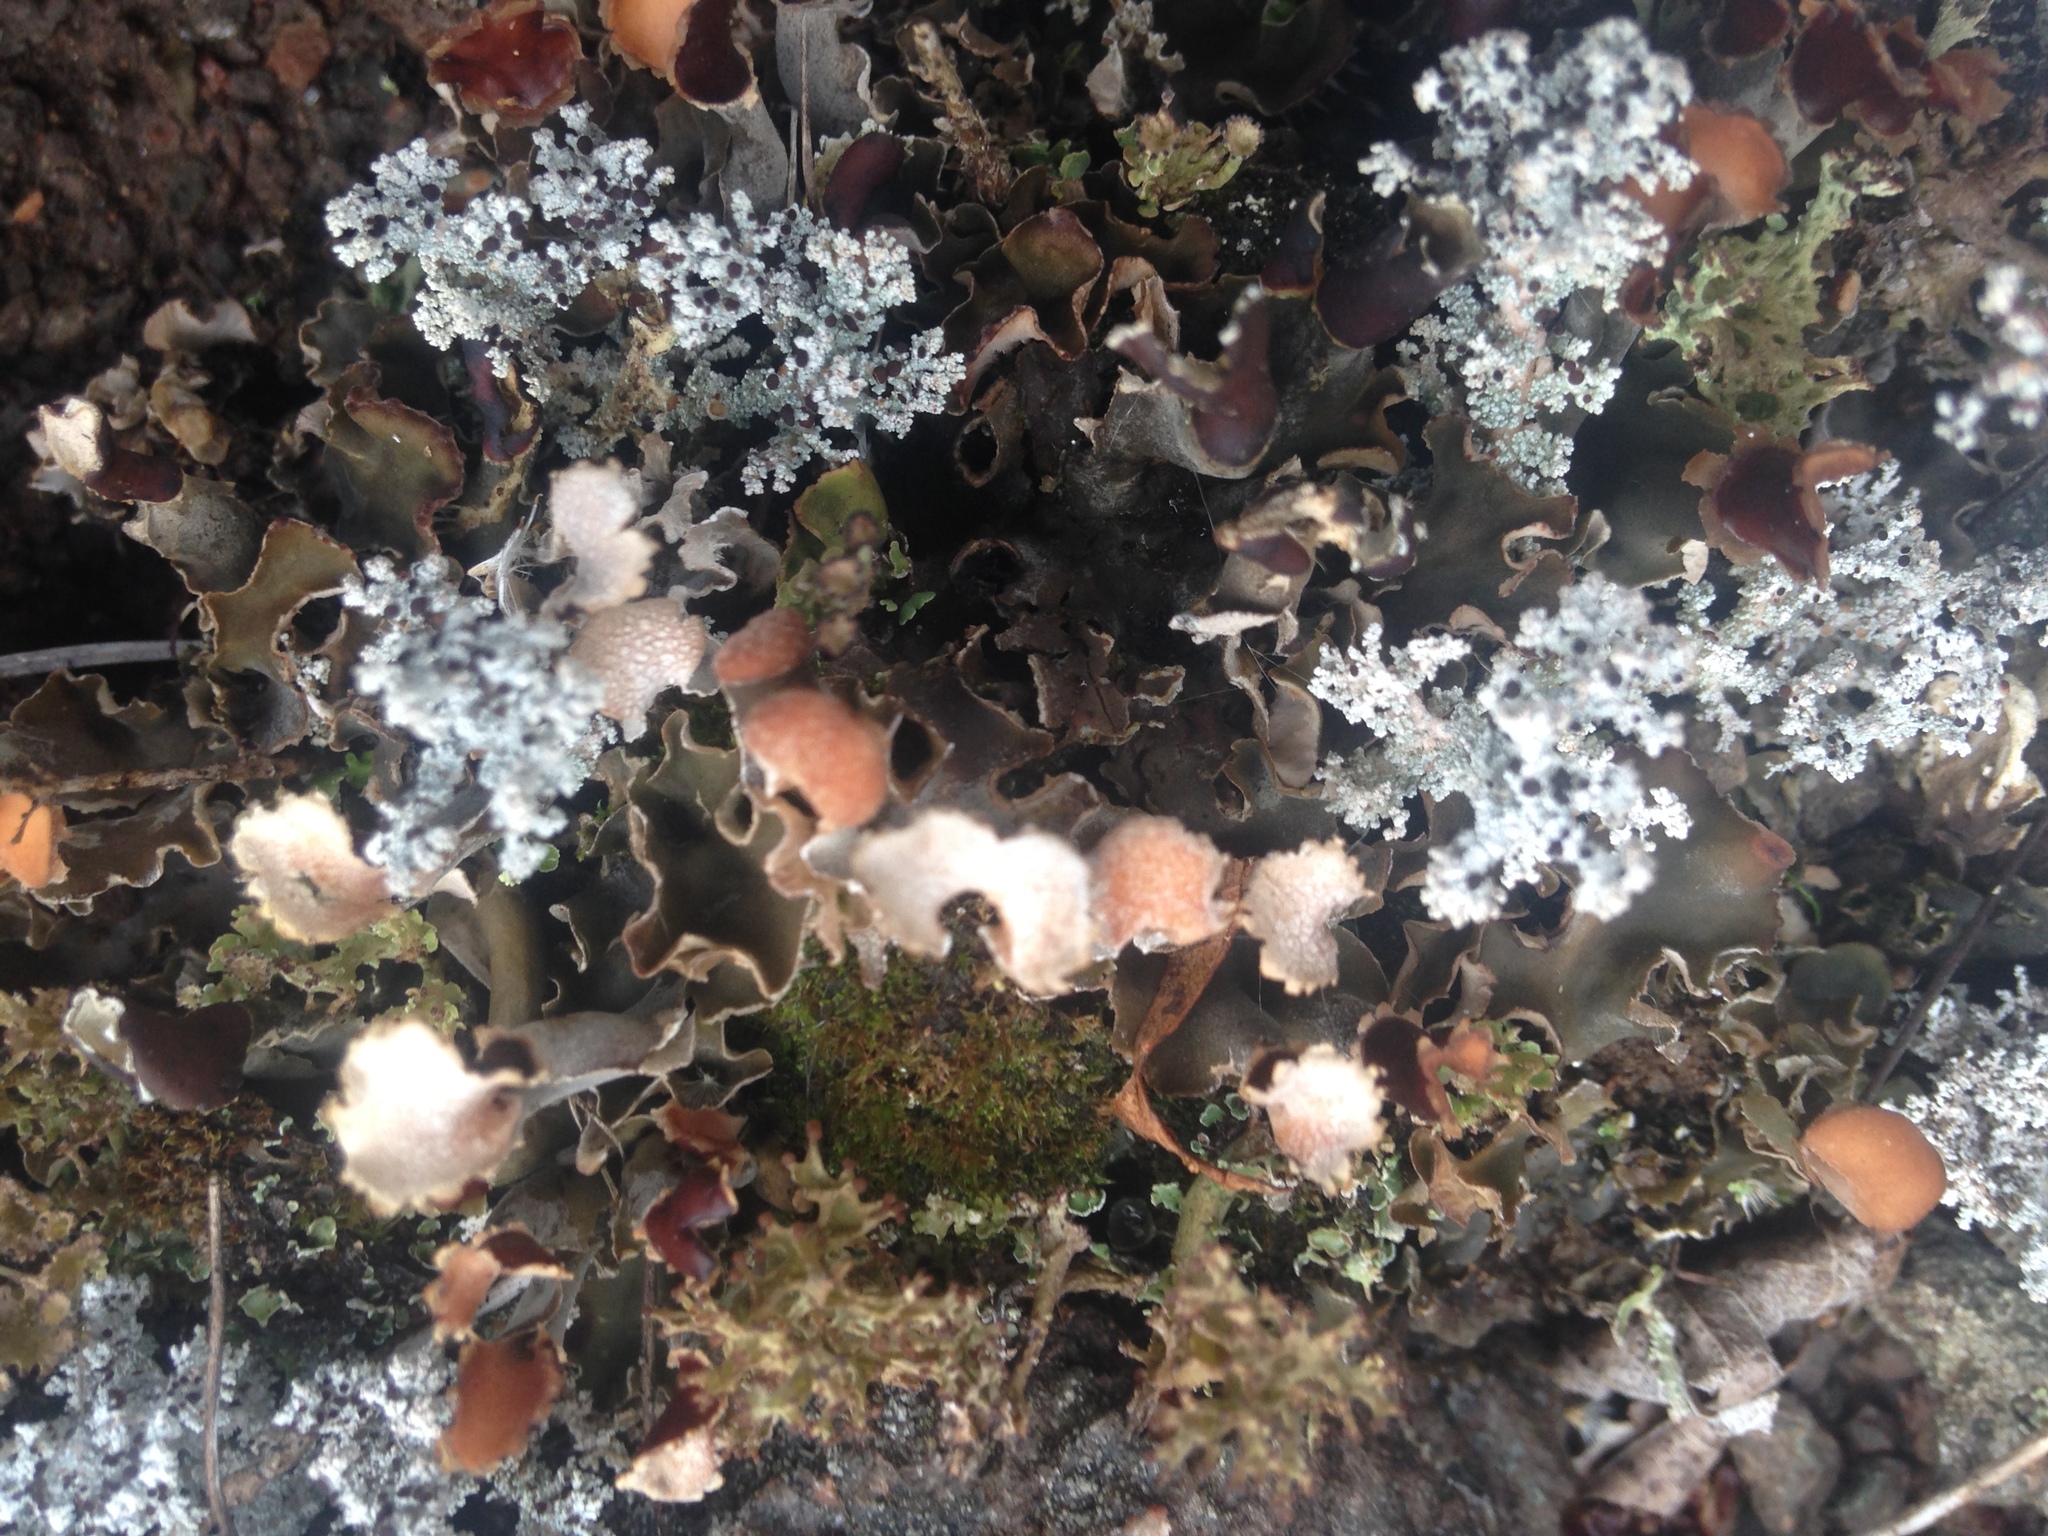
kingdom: Fungi
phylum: Ascomycota
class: Lecanoromycetes
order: Peltigerales
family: Nephromataceae
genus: Nephroma
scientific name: Nephroma laevigatum
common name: Mustard kidney lichen
